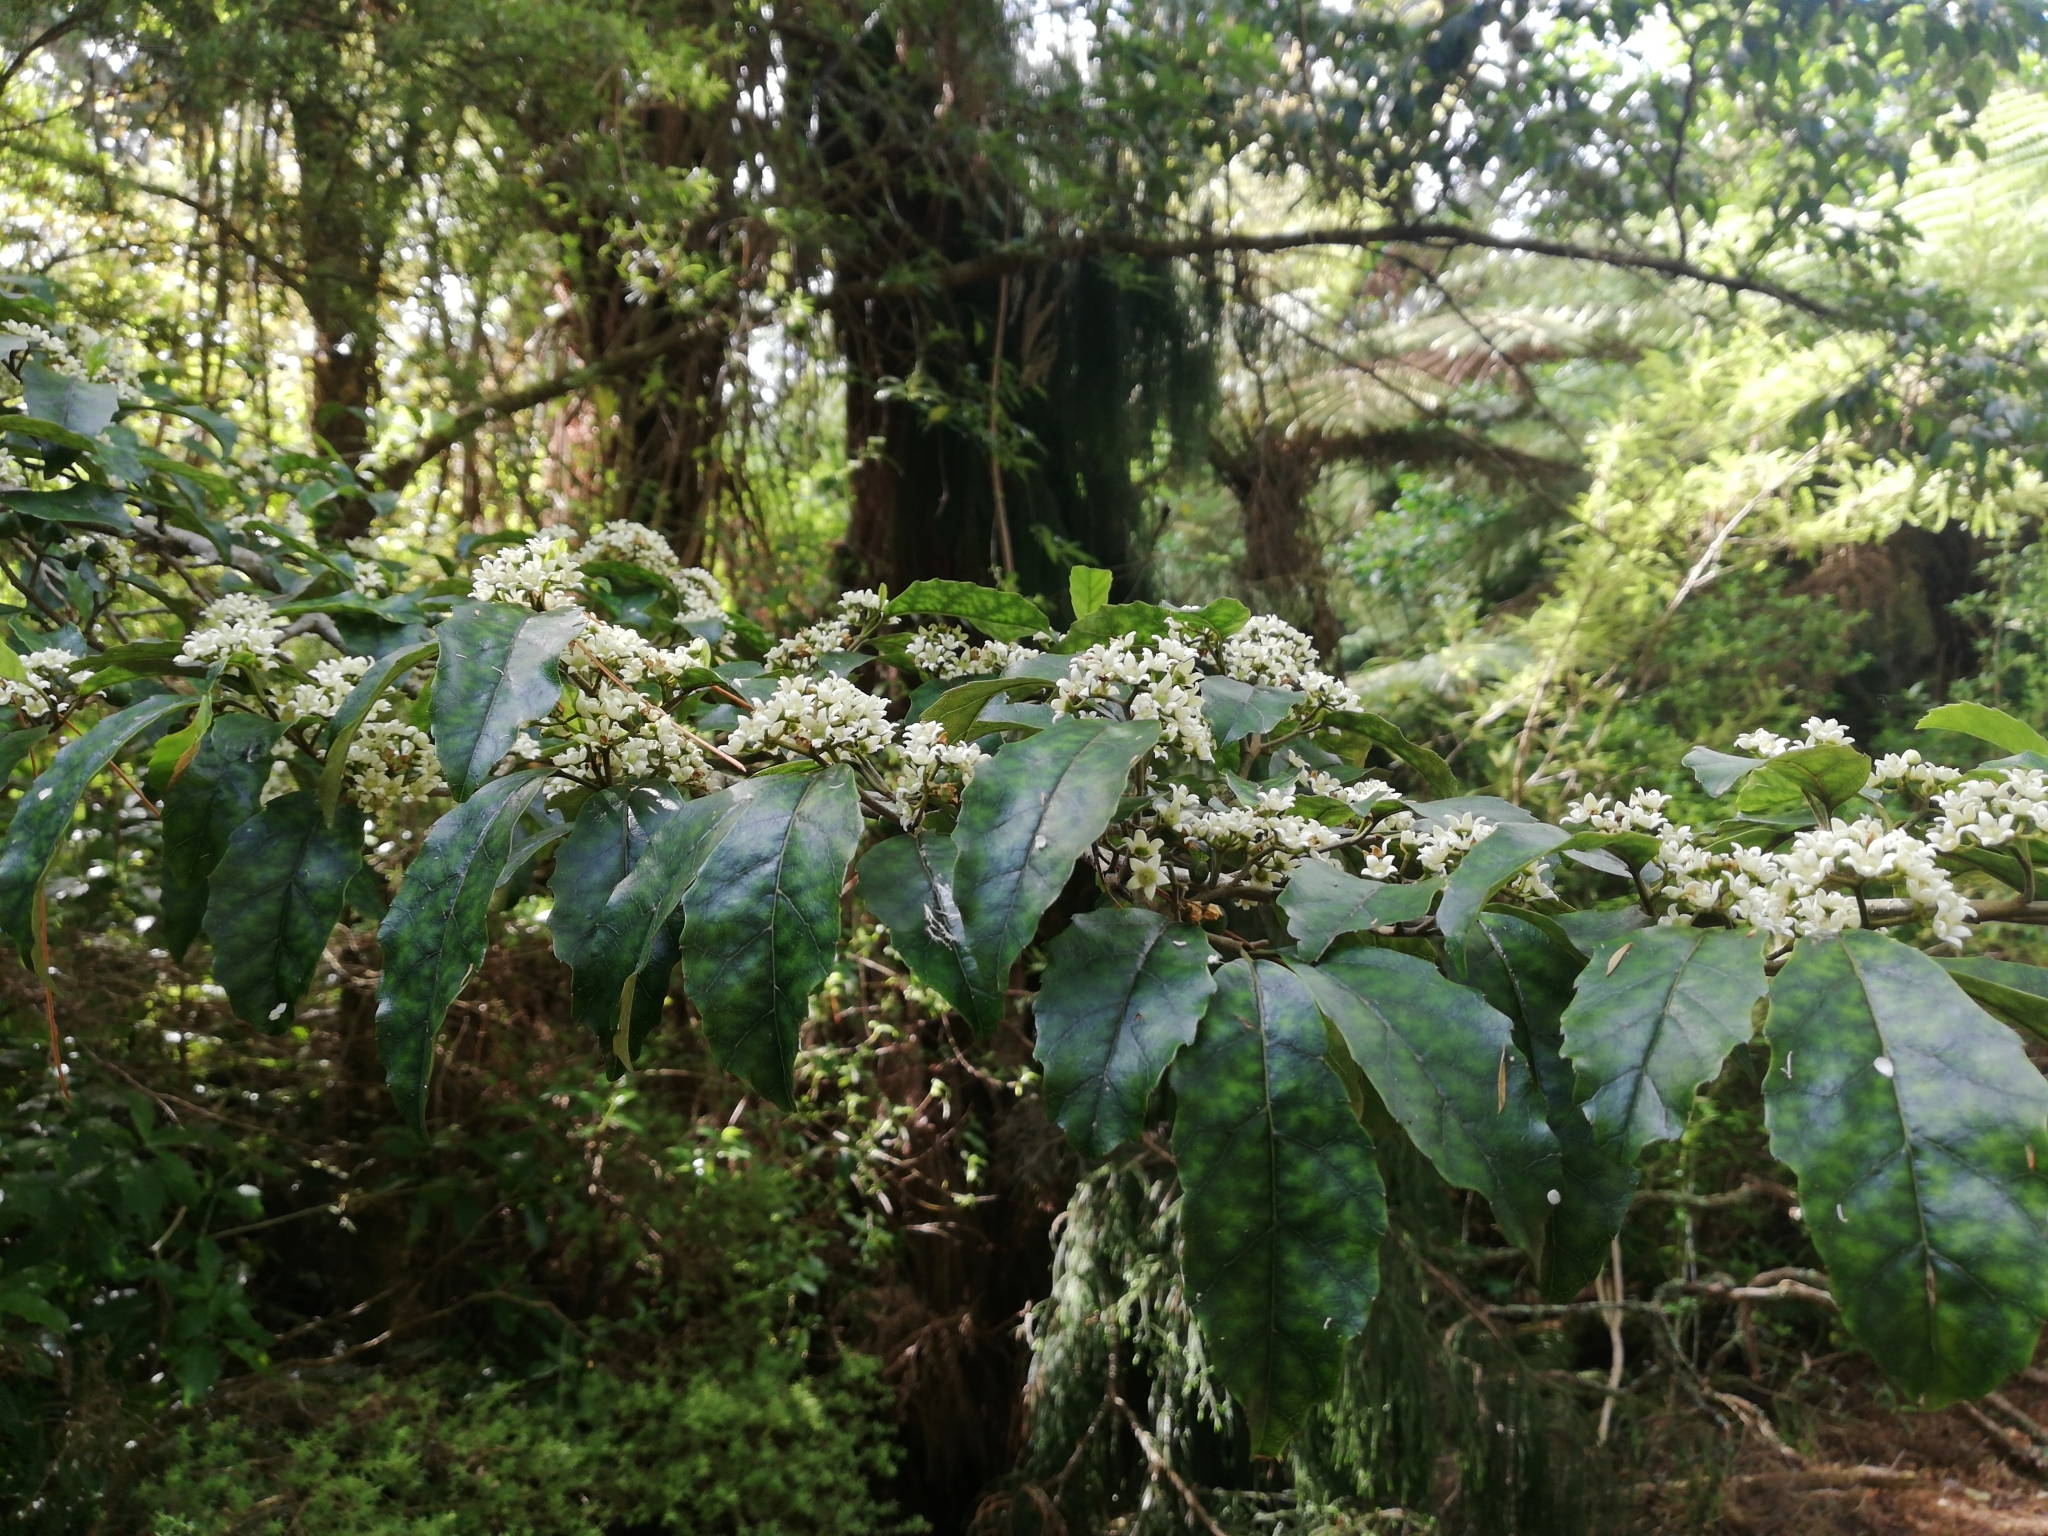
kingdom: Plantae
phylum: Tracheophyta
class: Magnoliopsida
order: Asterales
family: Rousseaceae
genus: Carpodetus
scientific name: Carpodetus serratus
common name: White mapau
